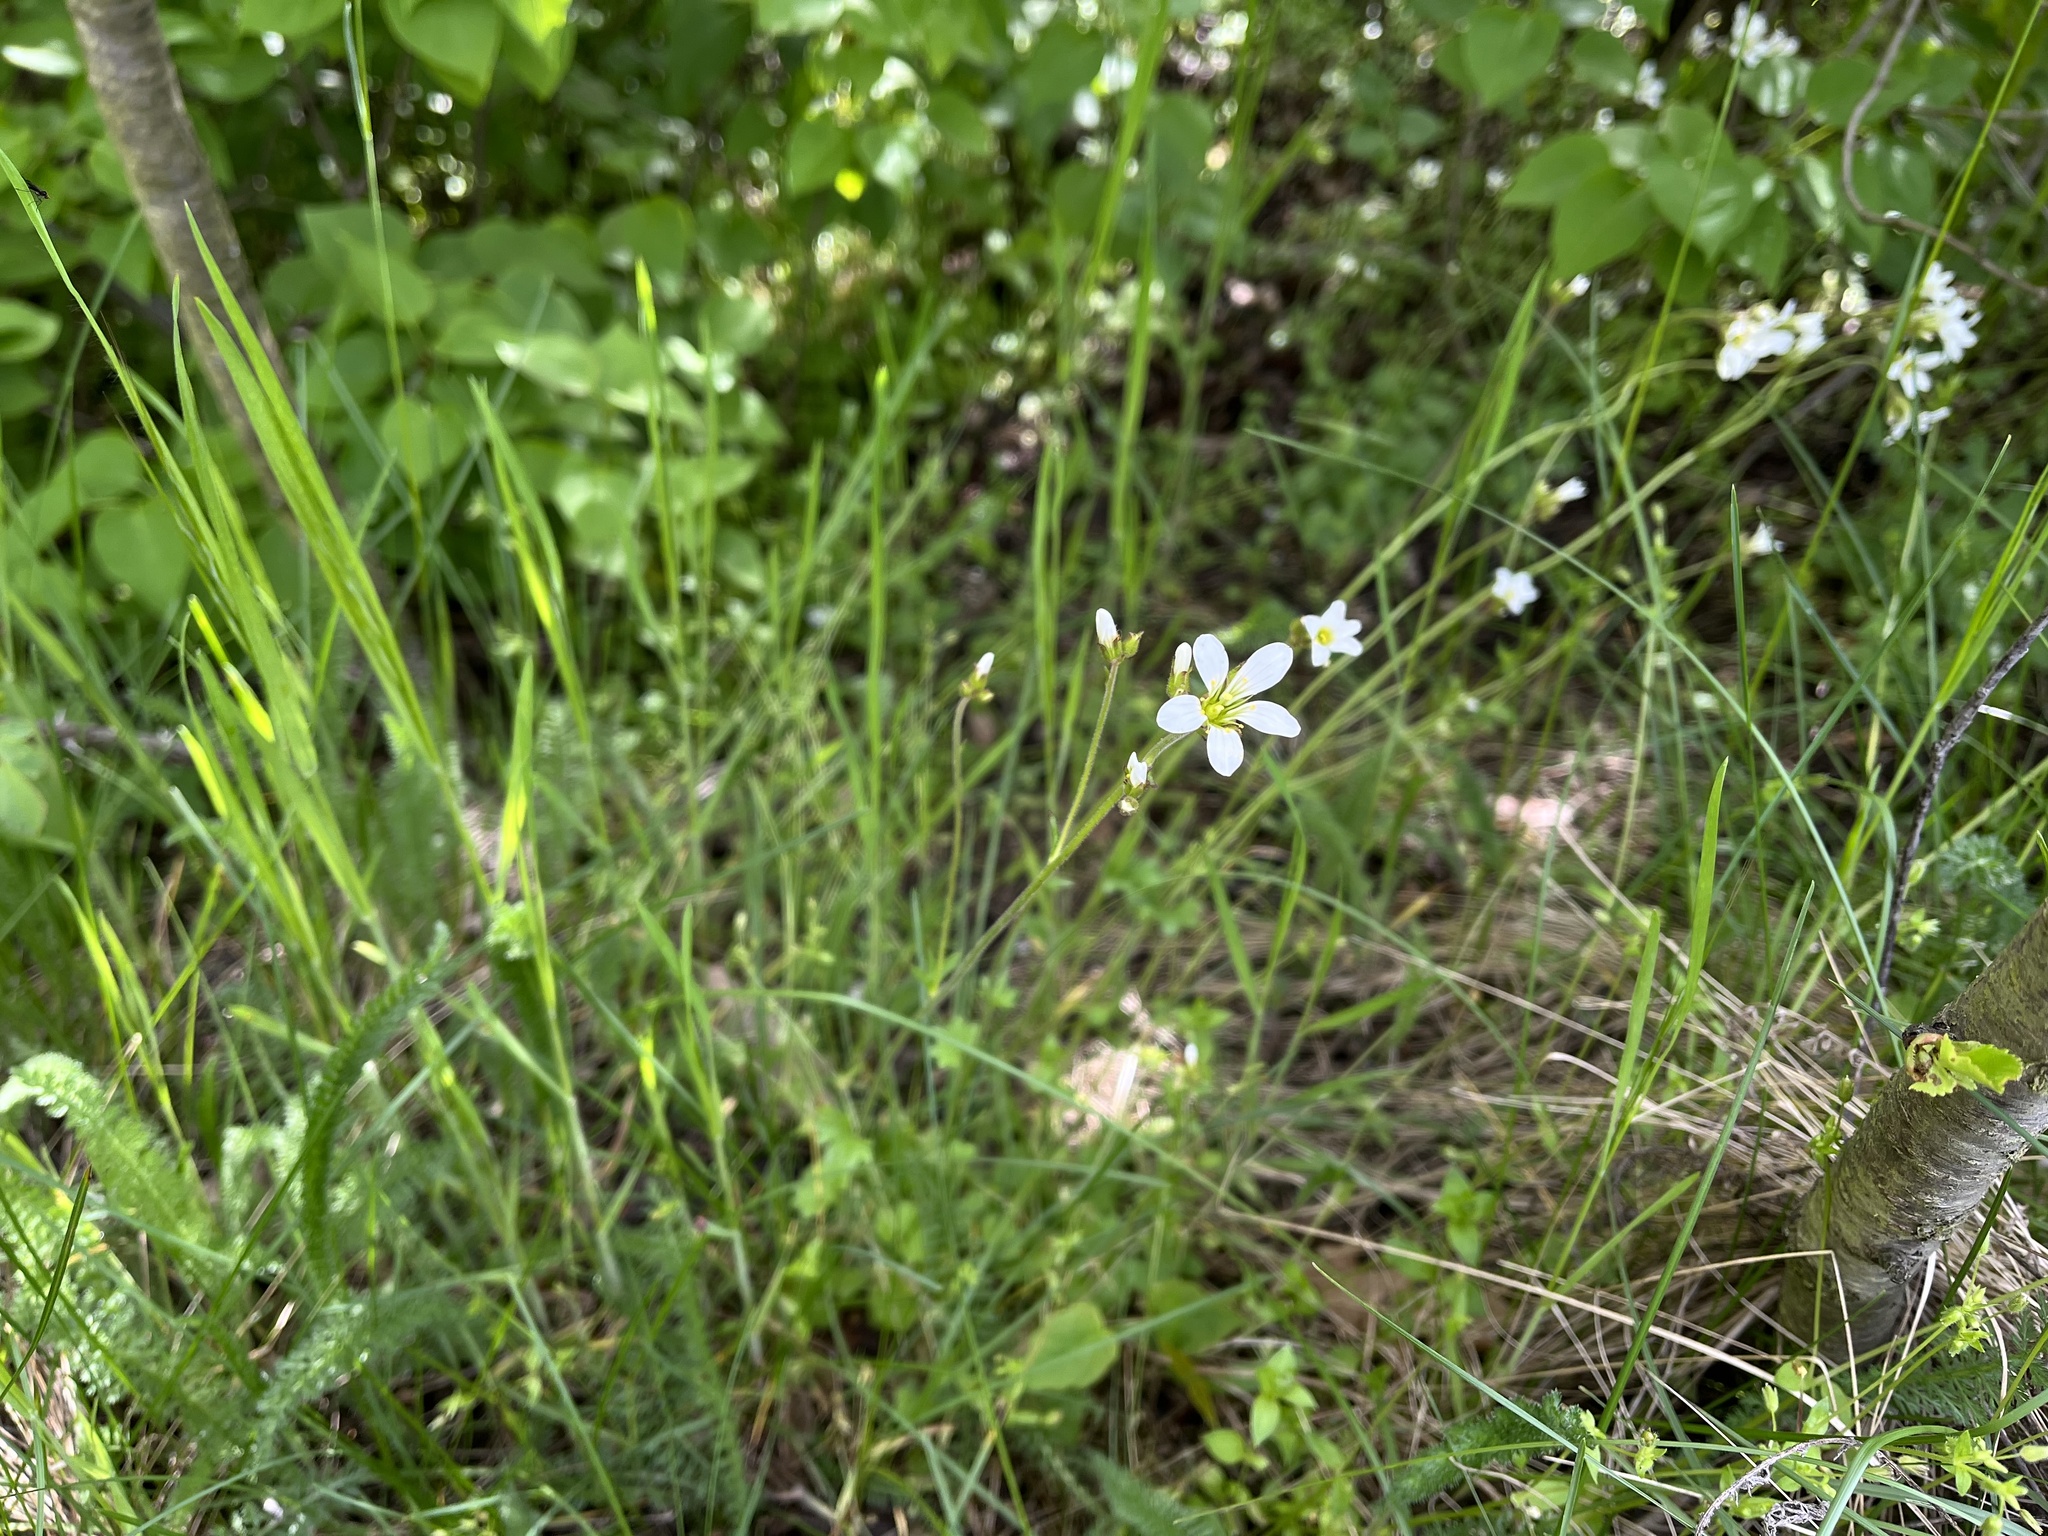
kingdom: Plantae
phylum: Tracheophyta
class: Magnoliopsida
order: Saxifragales
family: Saxifragaceae
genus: Saxifraga
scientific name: Saxifraga granulata
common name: Meadow saxifrage
